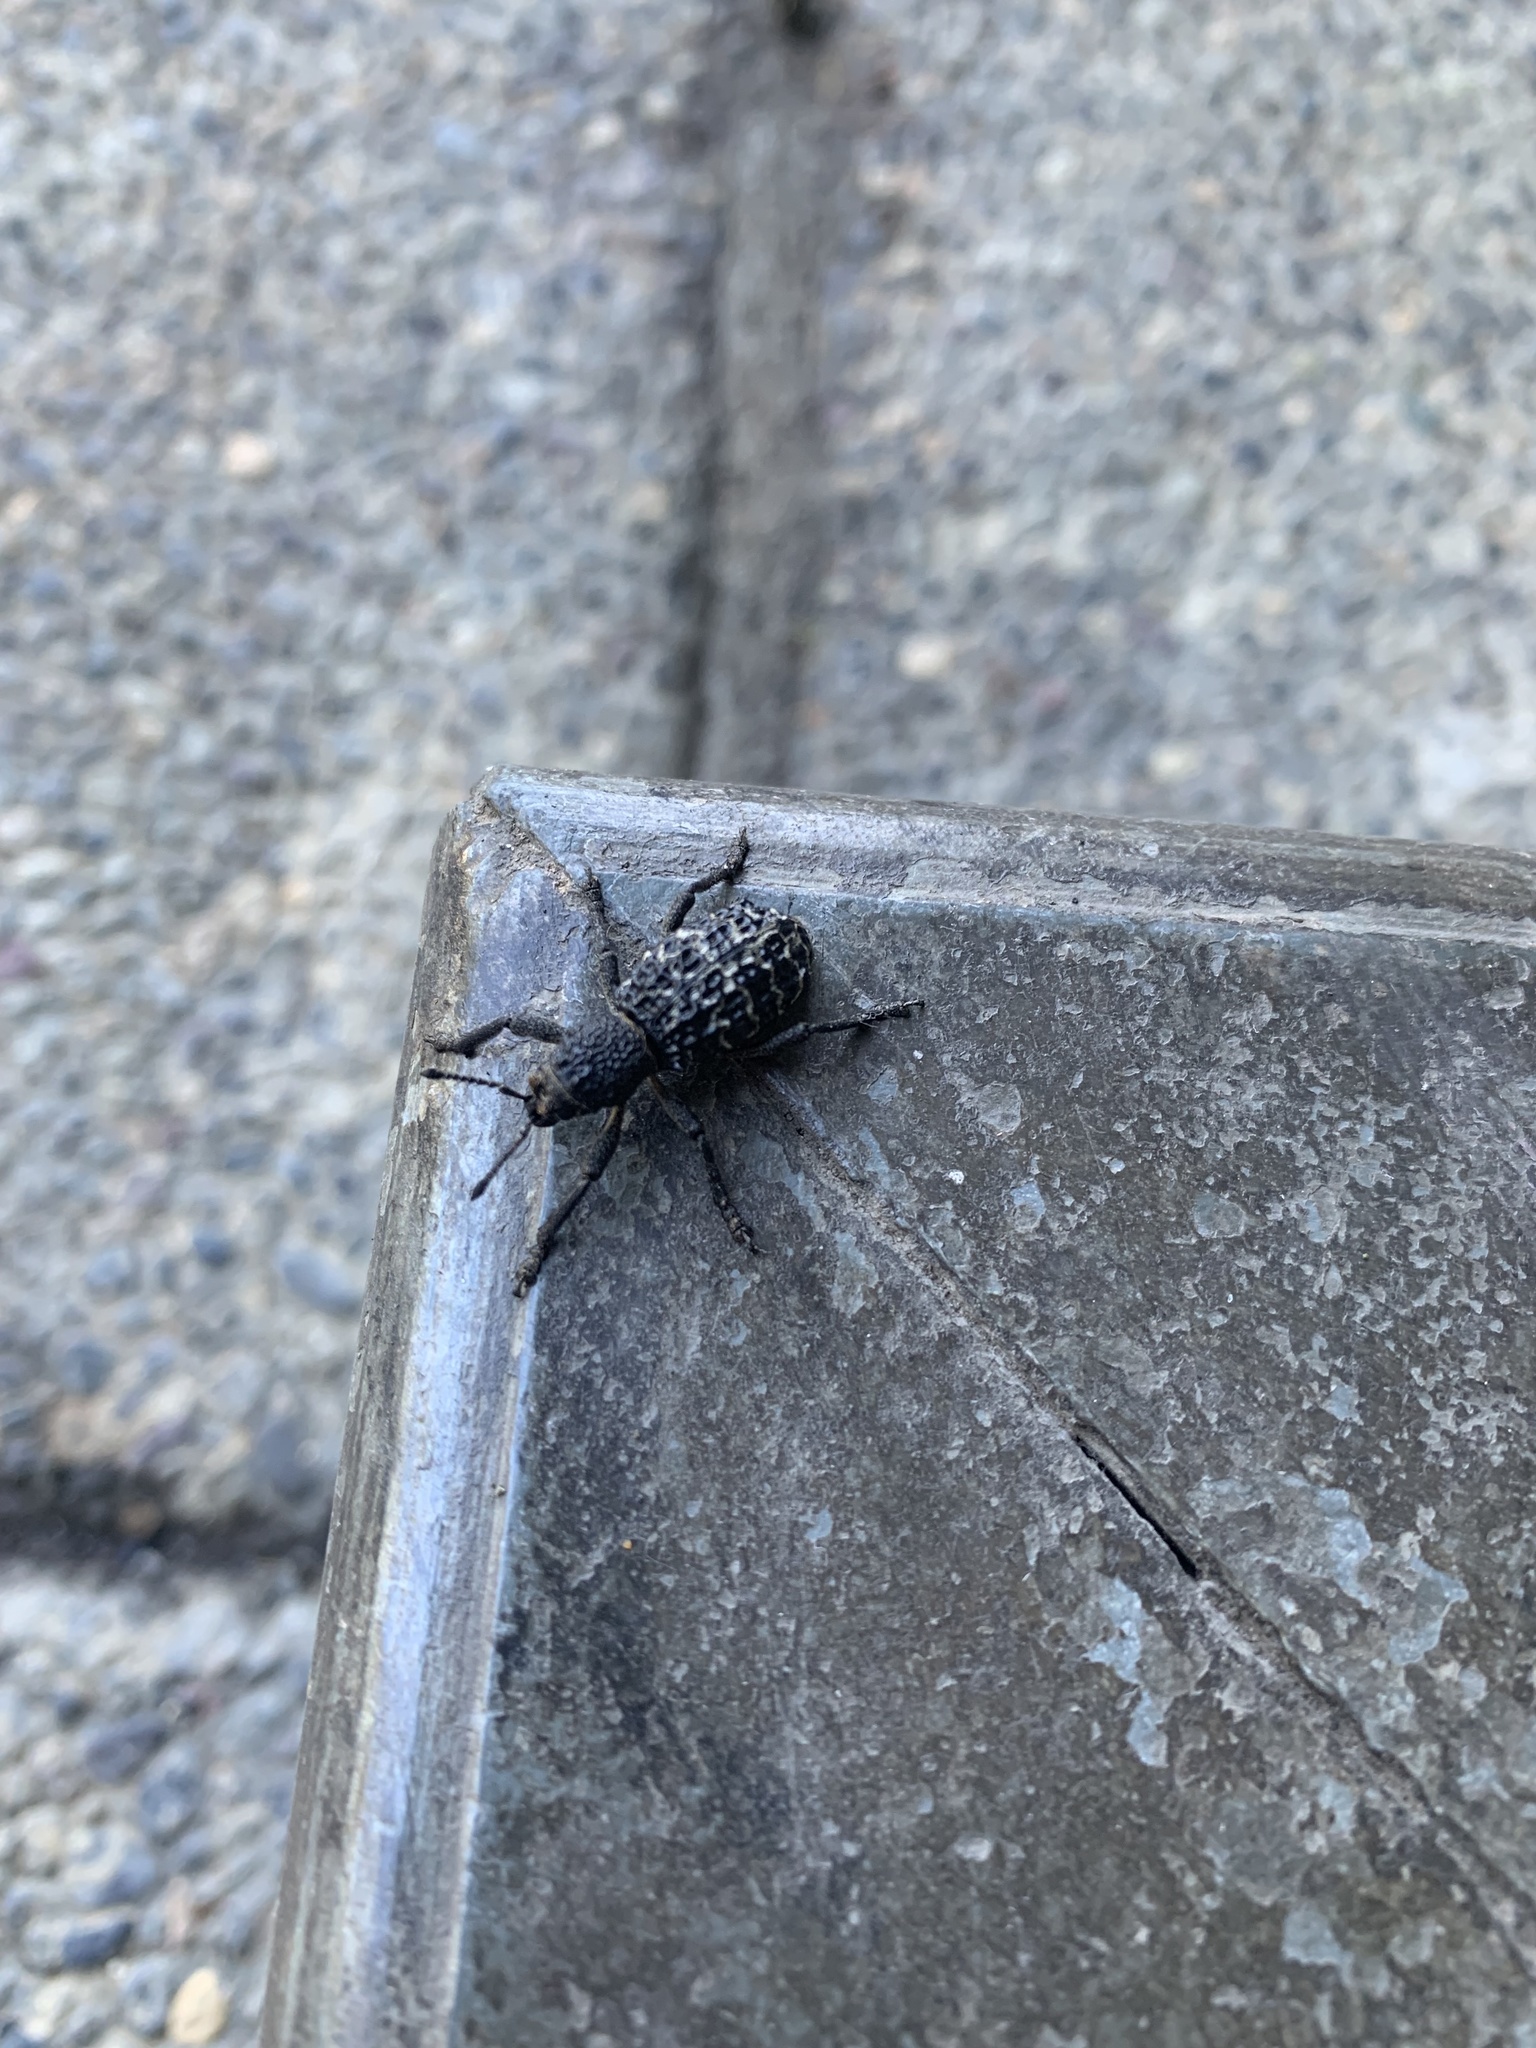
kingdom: Animalia
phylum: Arthropoda
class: Insecta
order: Coleoptera
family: Curculionidae
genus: Aegorhinus
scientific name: Aegorhinus superciliosus
